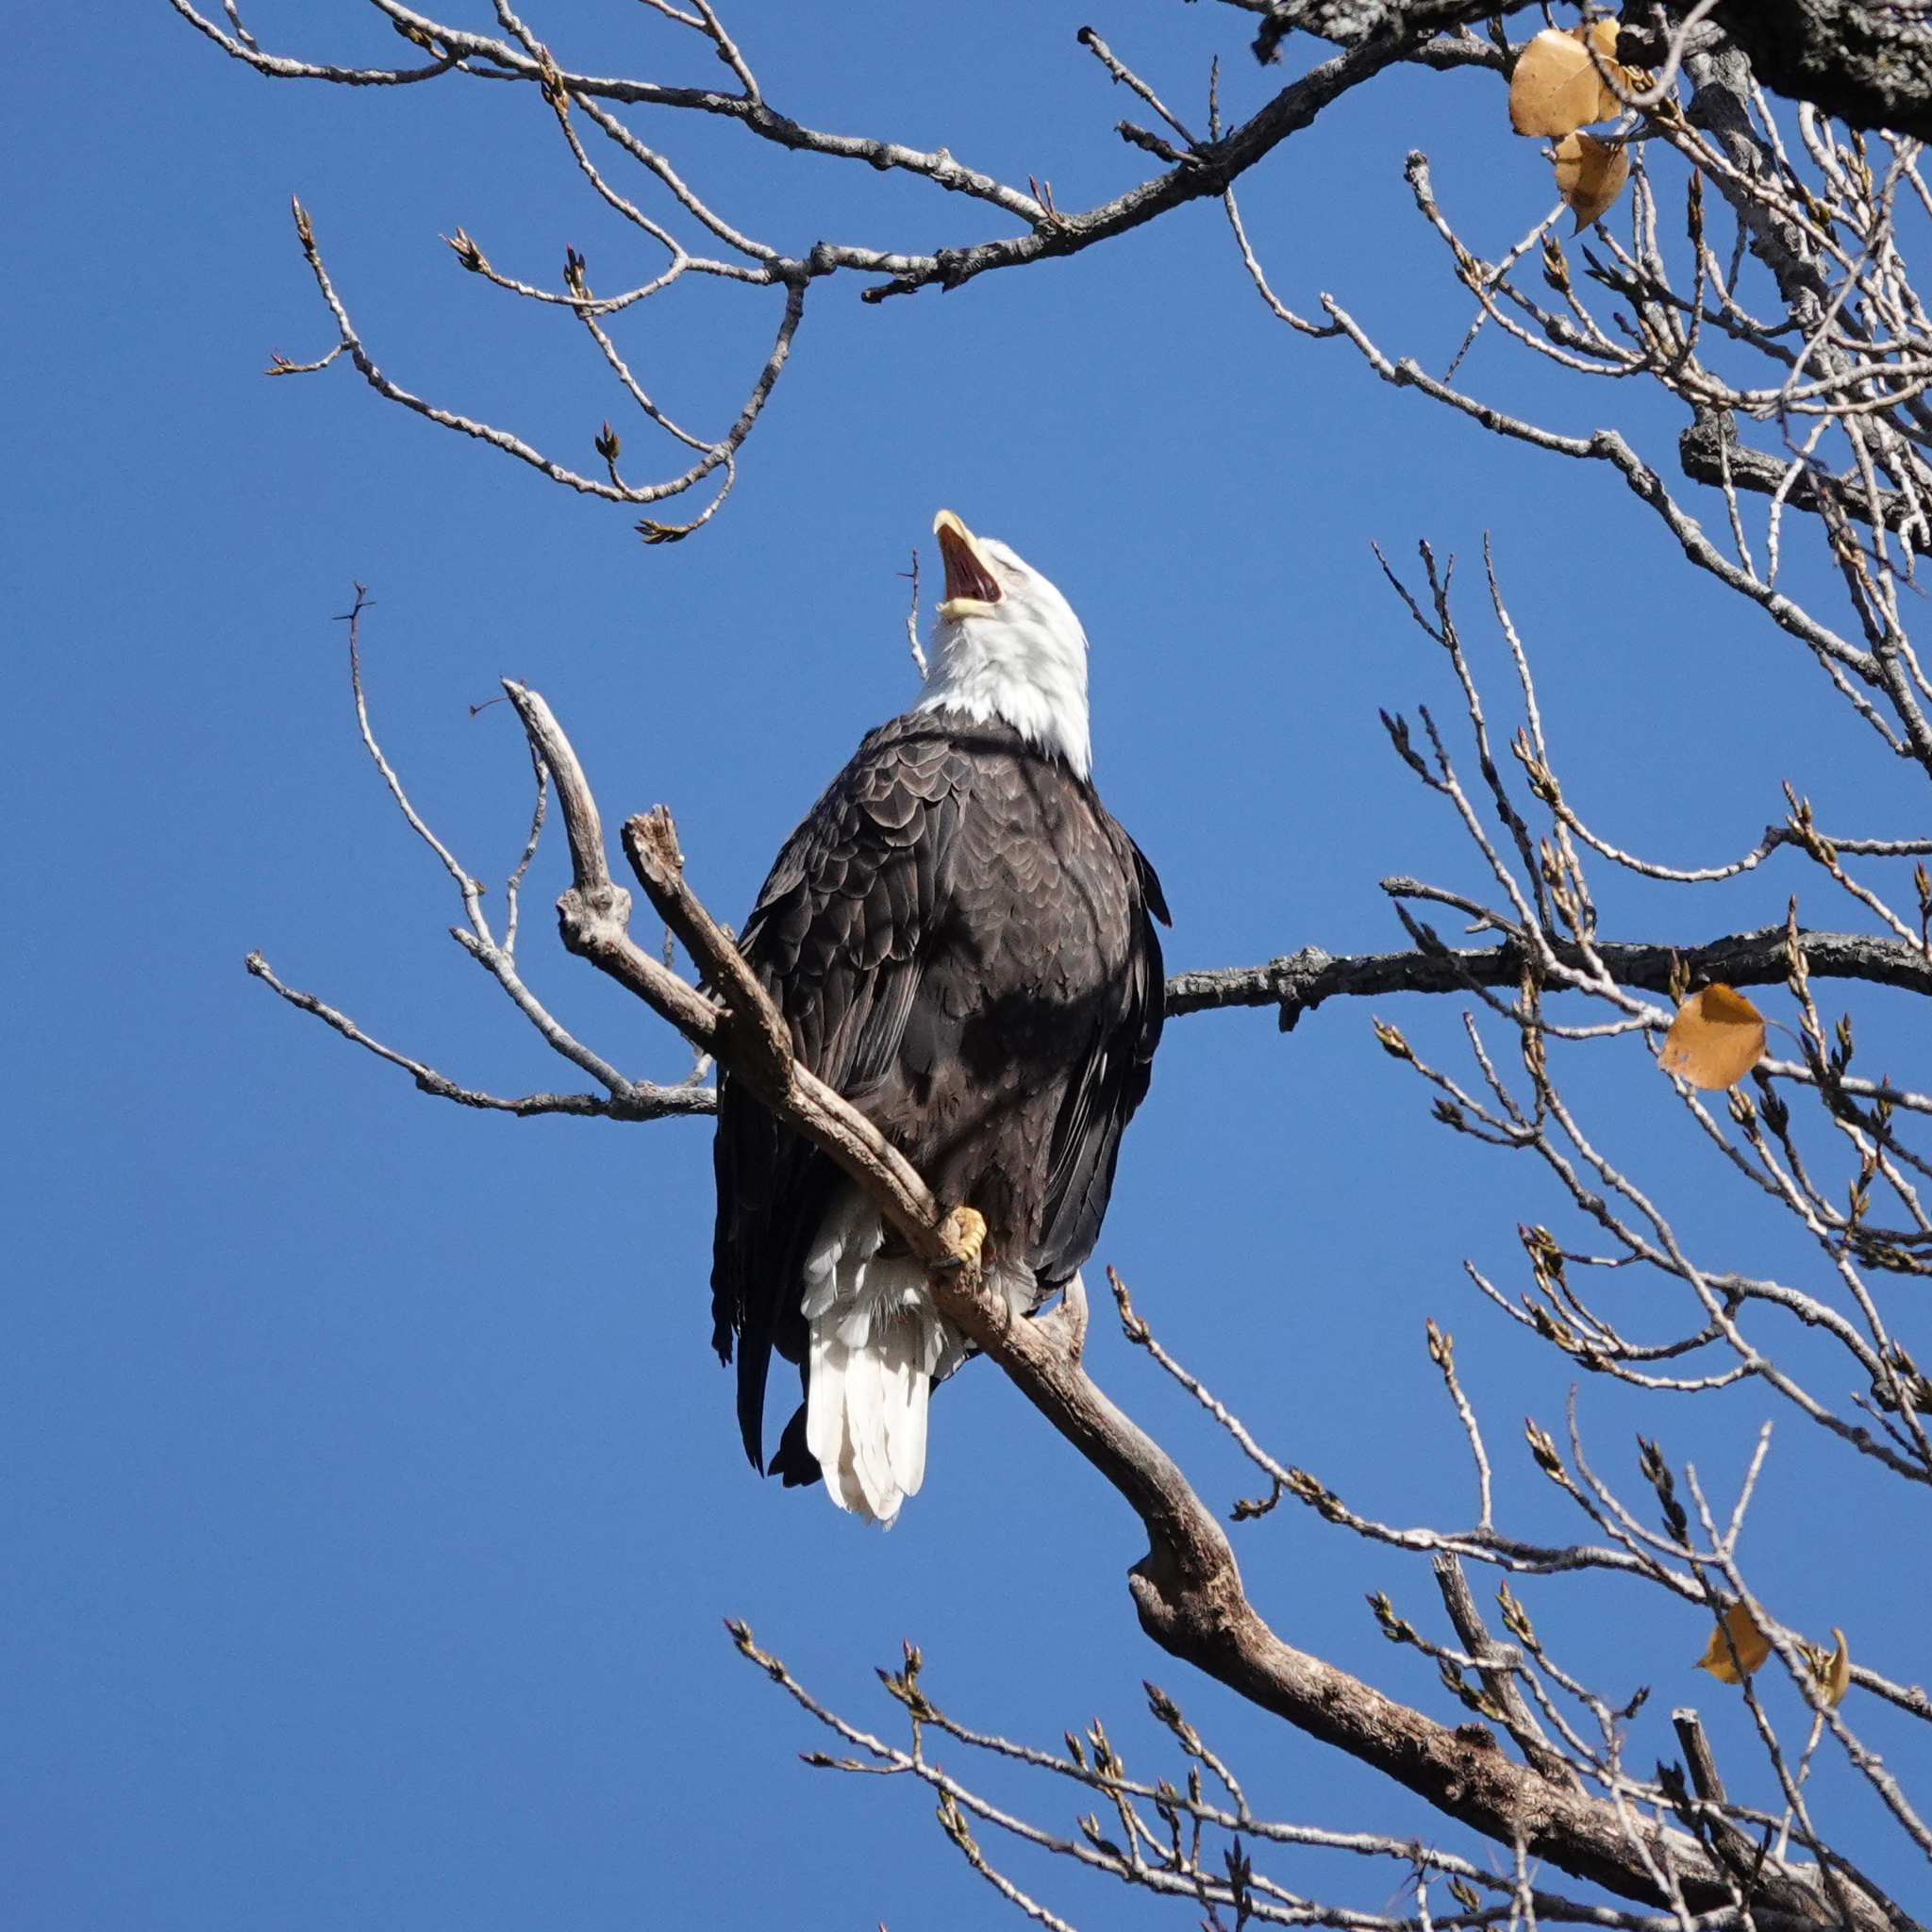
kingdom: Animalia
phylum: Chordata
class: Aves
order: Accipitriformes
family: Accipitridae
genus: Haliaeetus
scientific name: Haliaeetus leucocephalus
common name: Bald eagle
